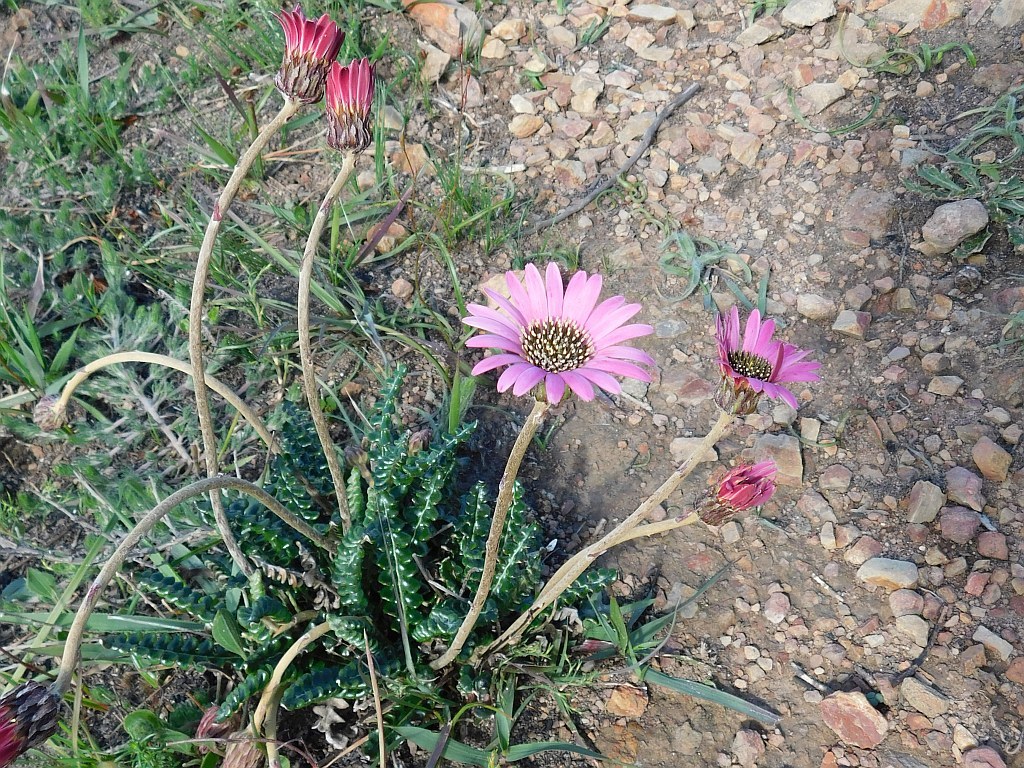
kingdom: Plantae
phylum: Tracheophyta
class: Magnoliopsida
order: Asterales
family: Asteraceae
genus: Gerbera
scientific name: Gerbera linnaei
